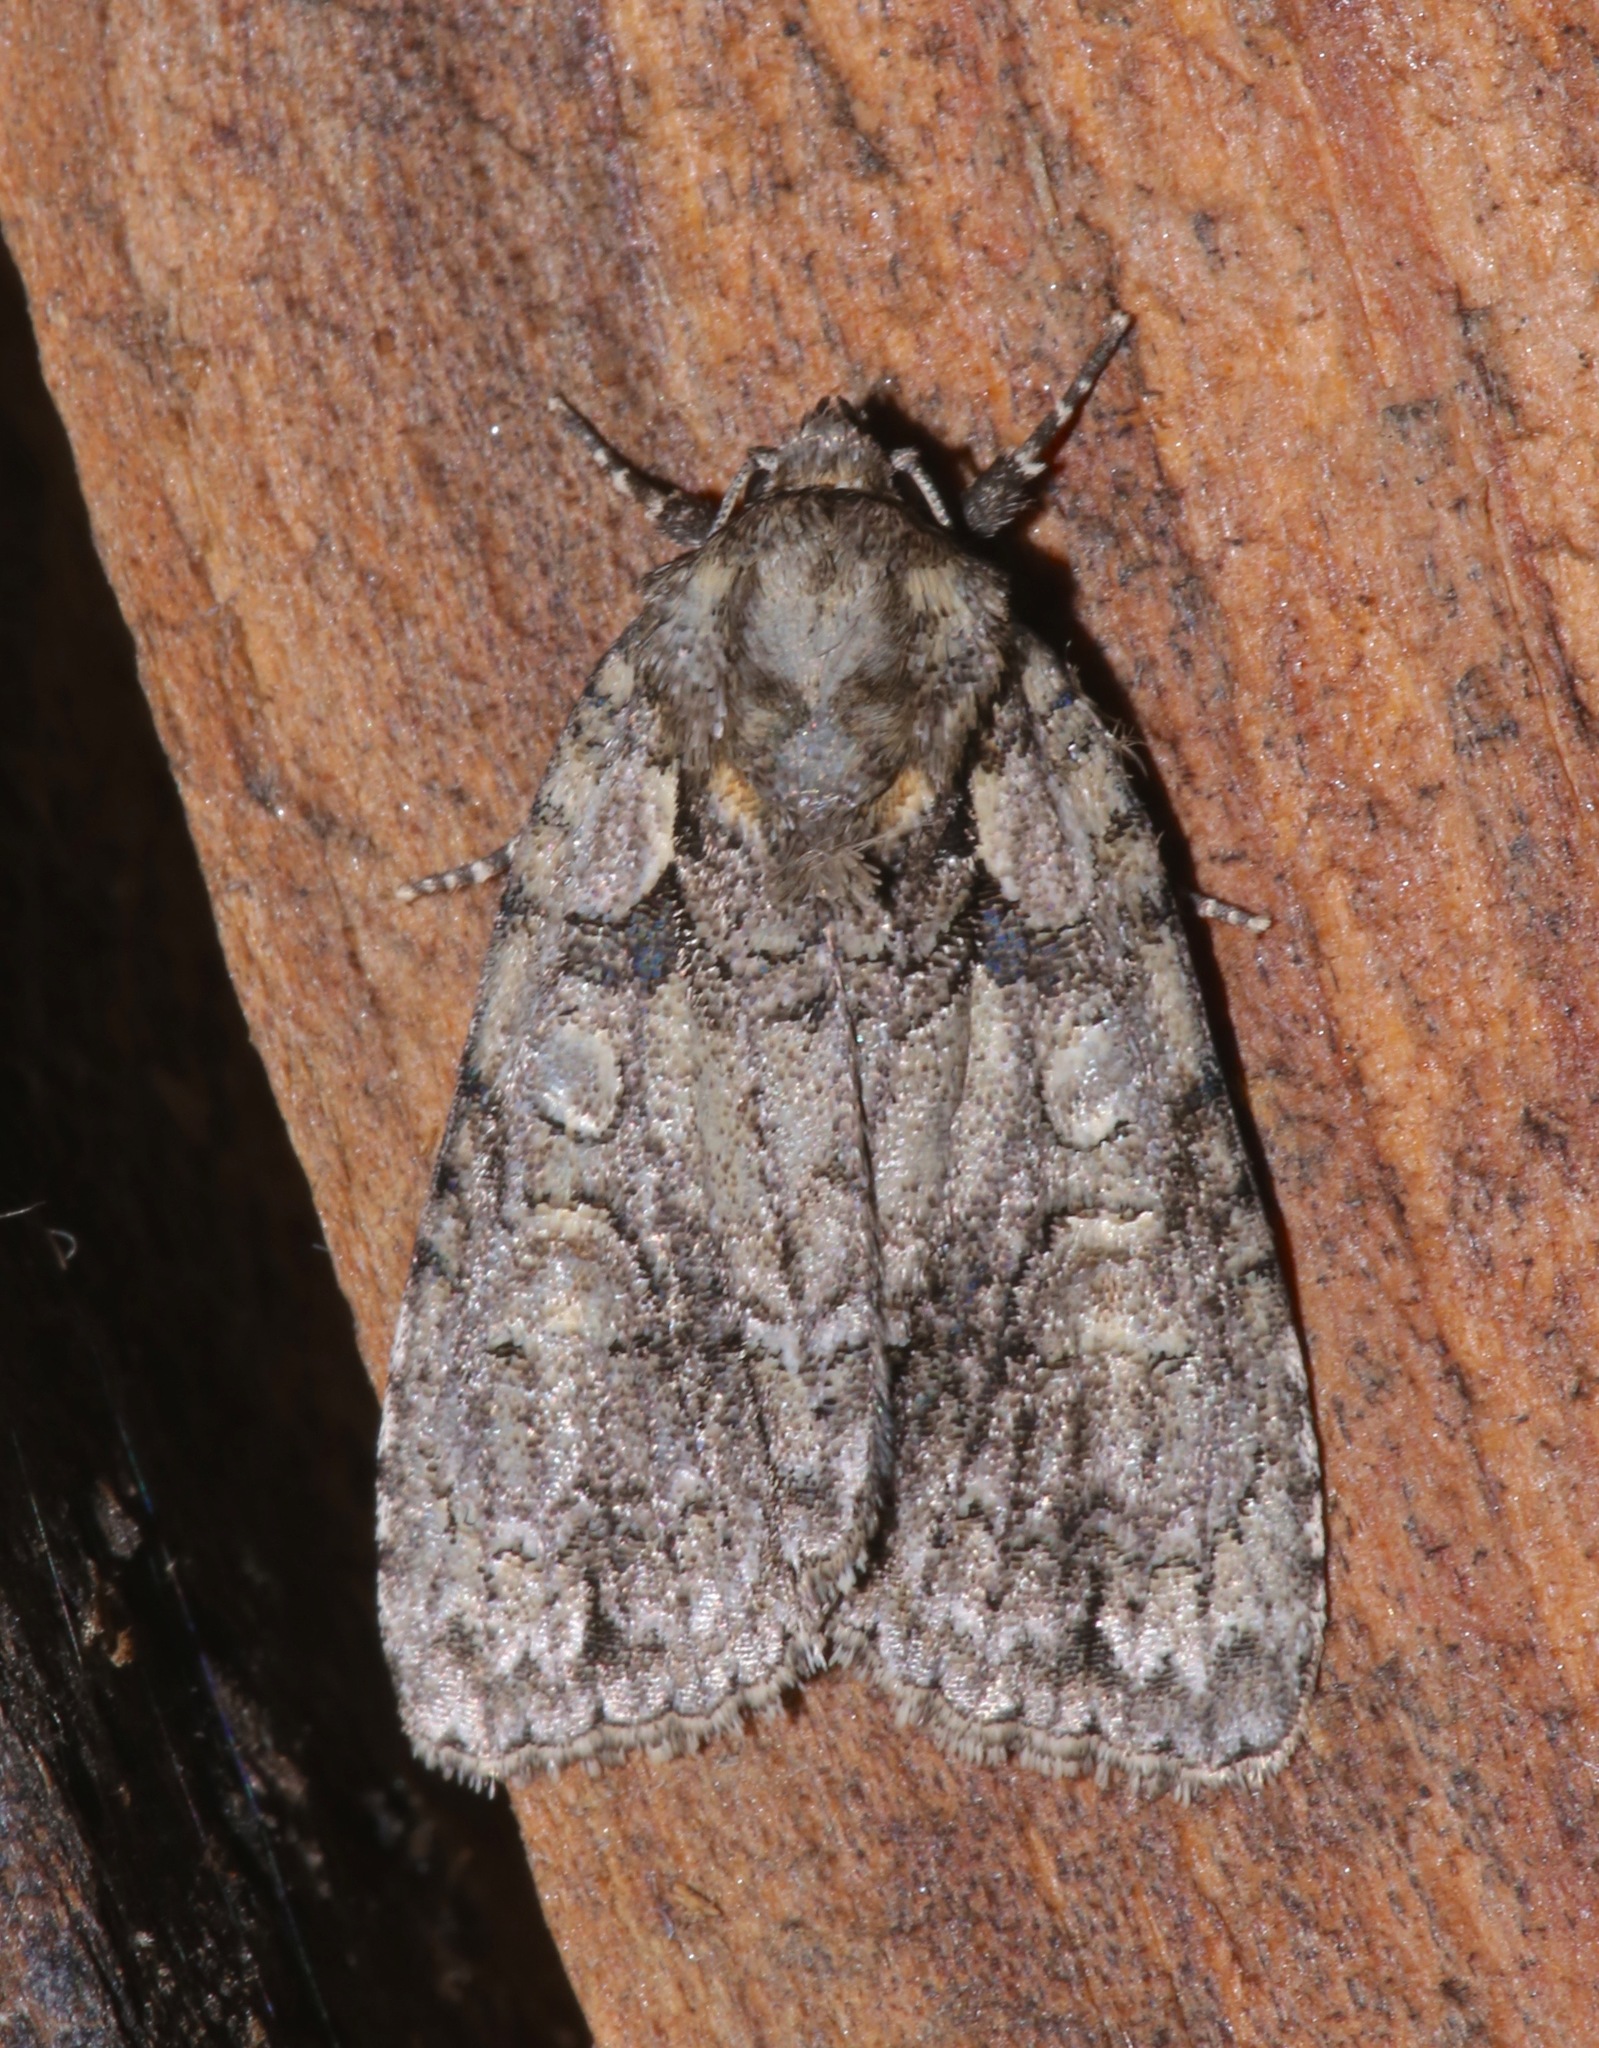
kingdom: Animalia
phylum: Arthropoda
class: Insecta
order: Lepidoptera
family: Noctuidae
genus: Acronicta
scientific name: Acronicta ovata
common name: Epauleted oak dagger
